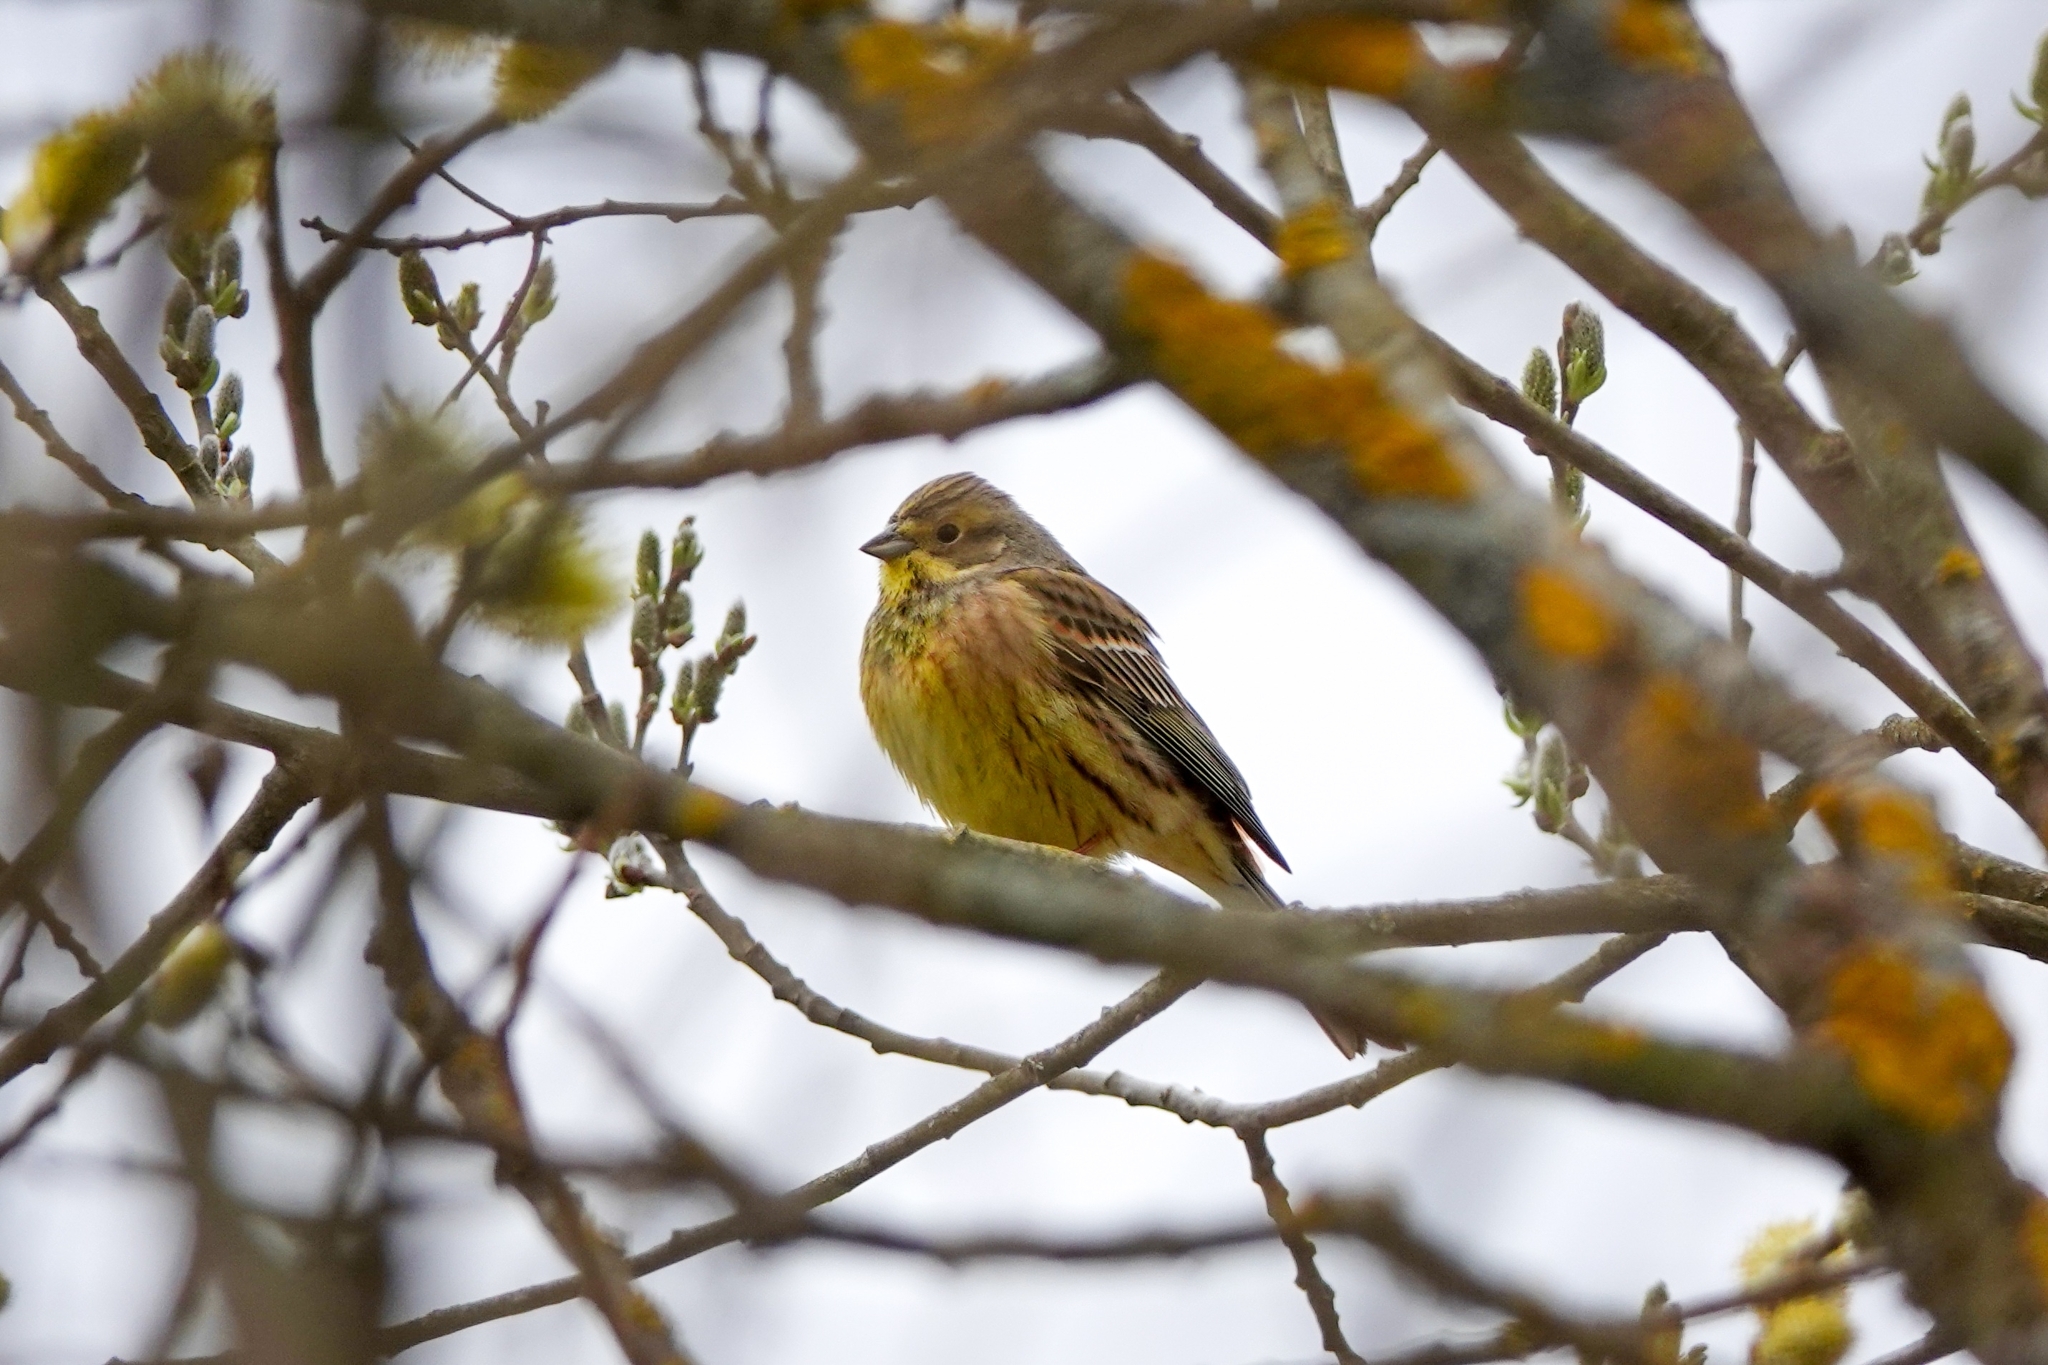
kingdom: Animalia
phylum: Chordata
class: Aves
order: Passeriformes
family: Emberizidae
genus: Emberiza
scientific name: Emberiza citrinella
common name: Yellowhammer
